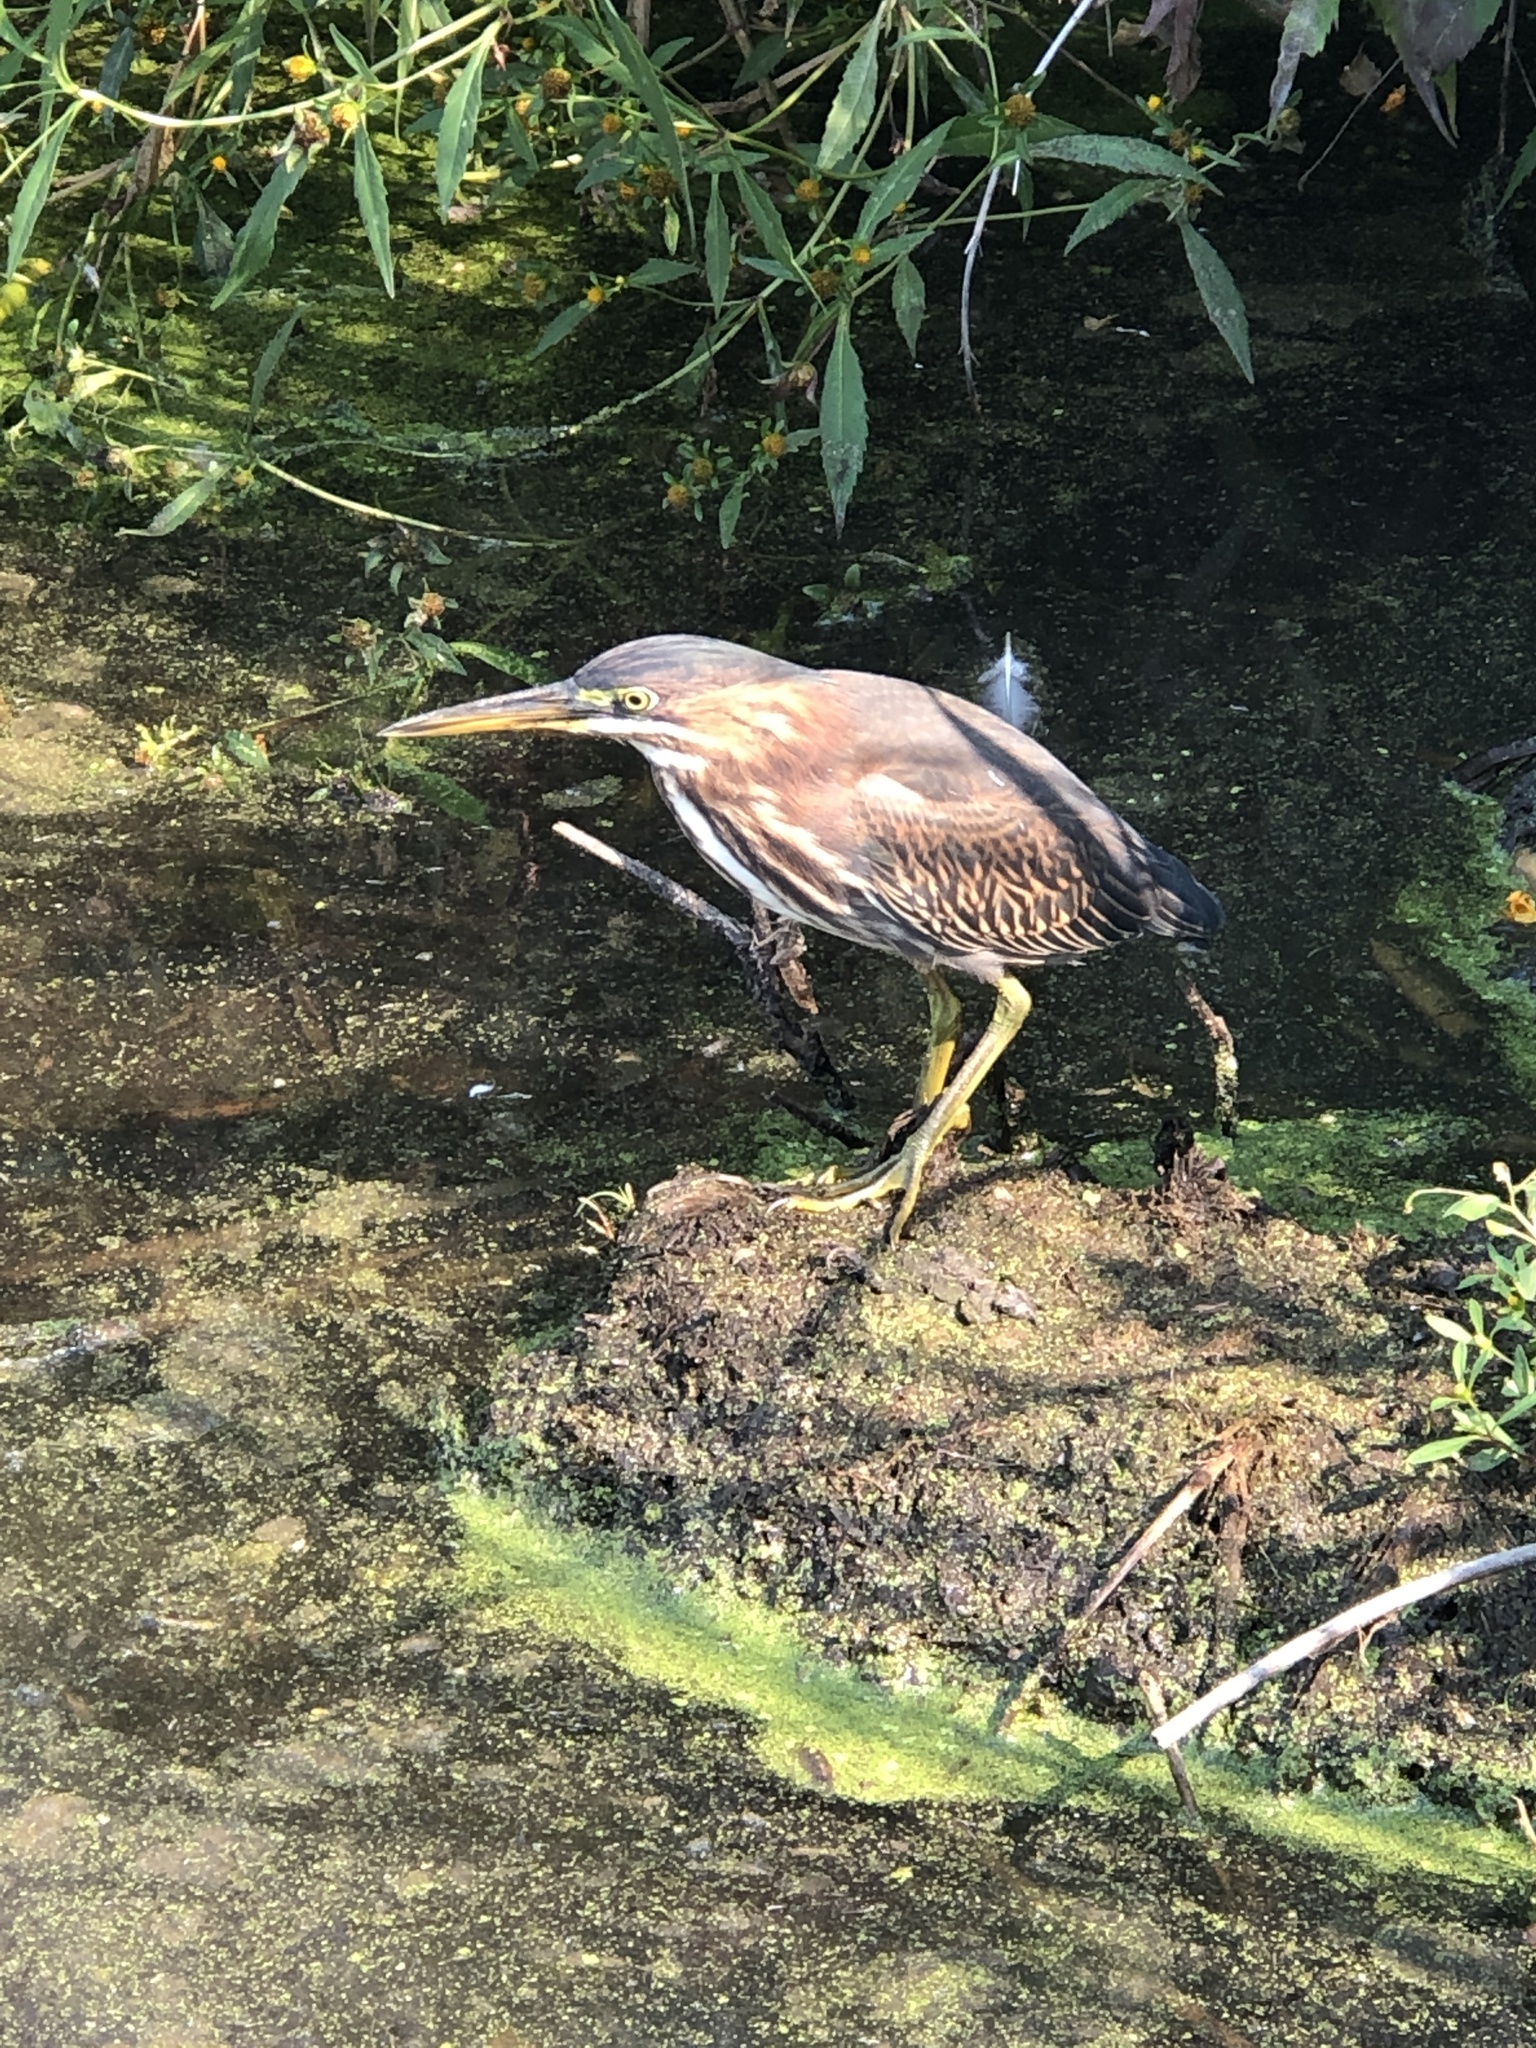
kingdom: Animalia
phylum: Chordata
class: Aves
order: Pelecaniformes
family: Ardeidae
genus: Butorides
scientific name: Butorides virescens
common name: Green heron
